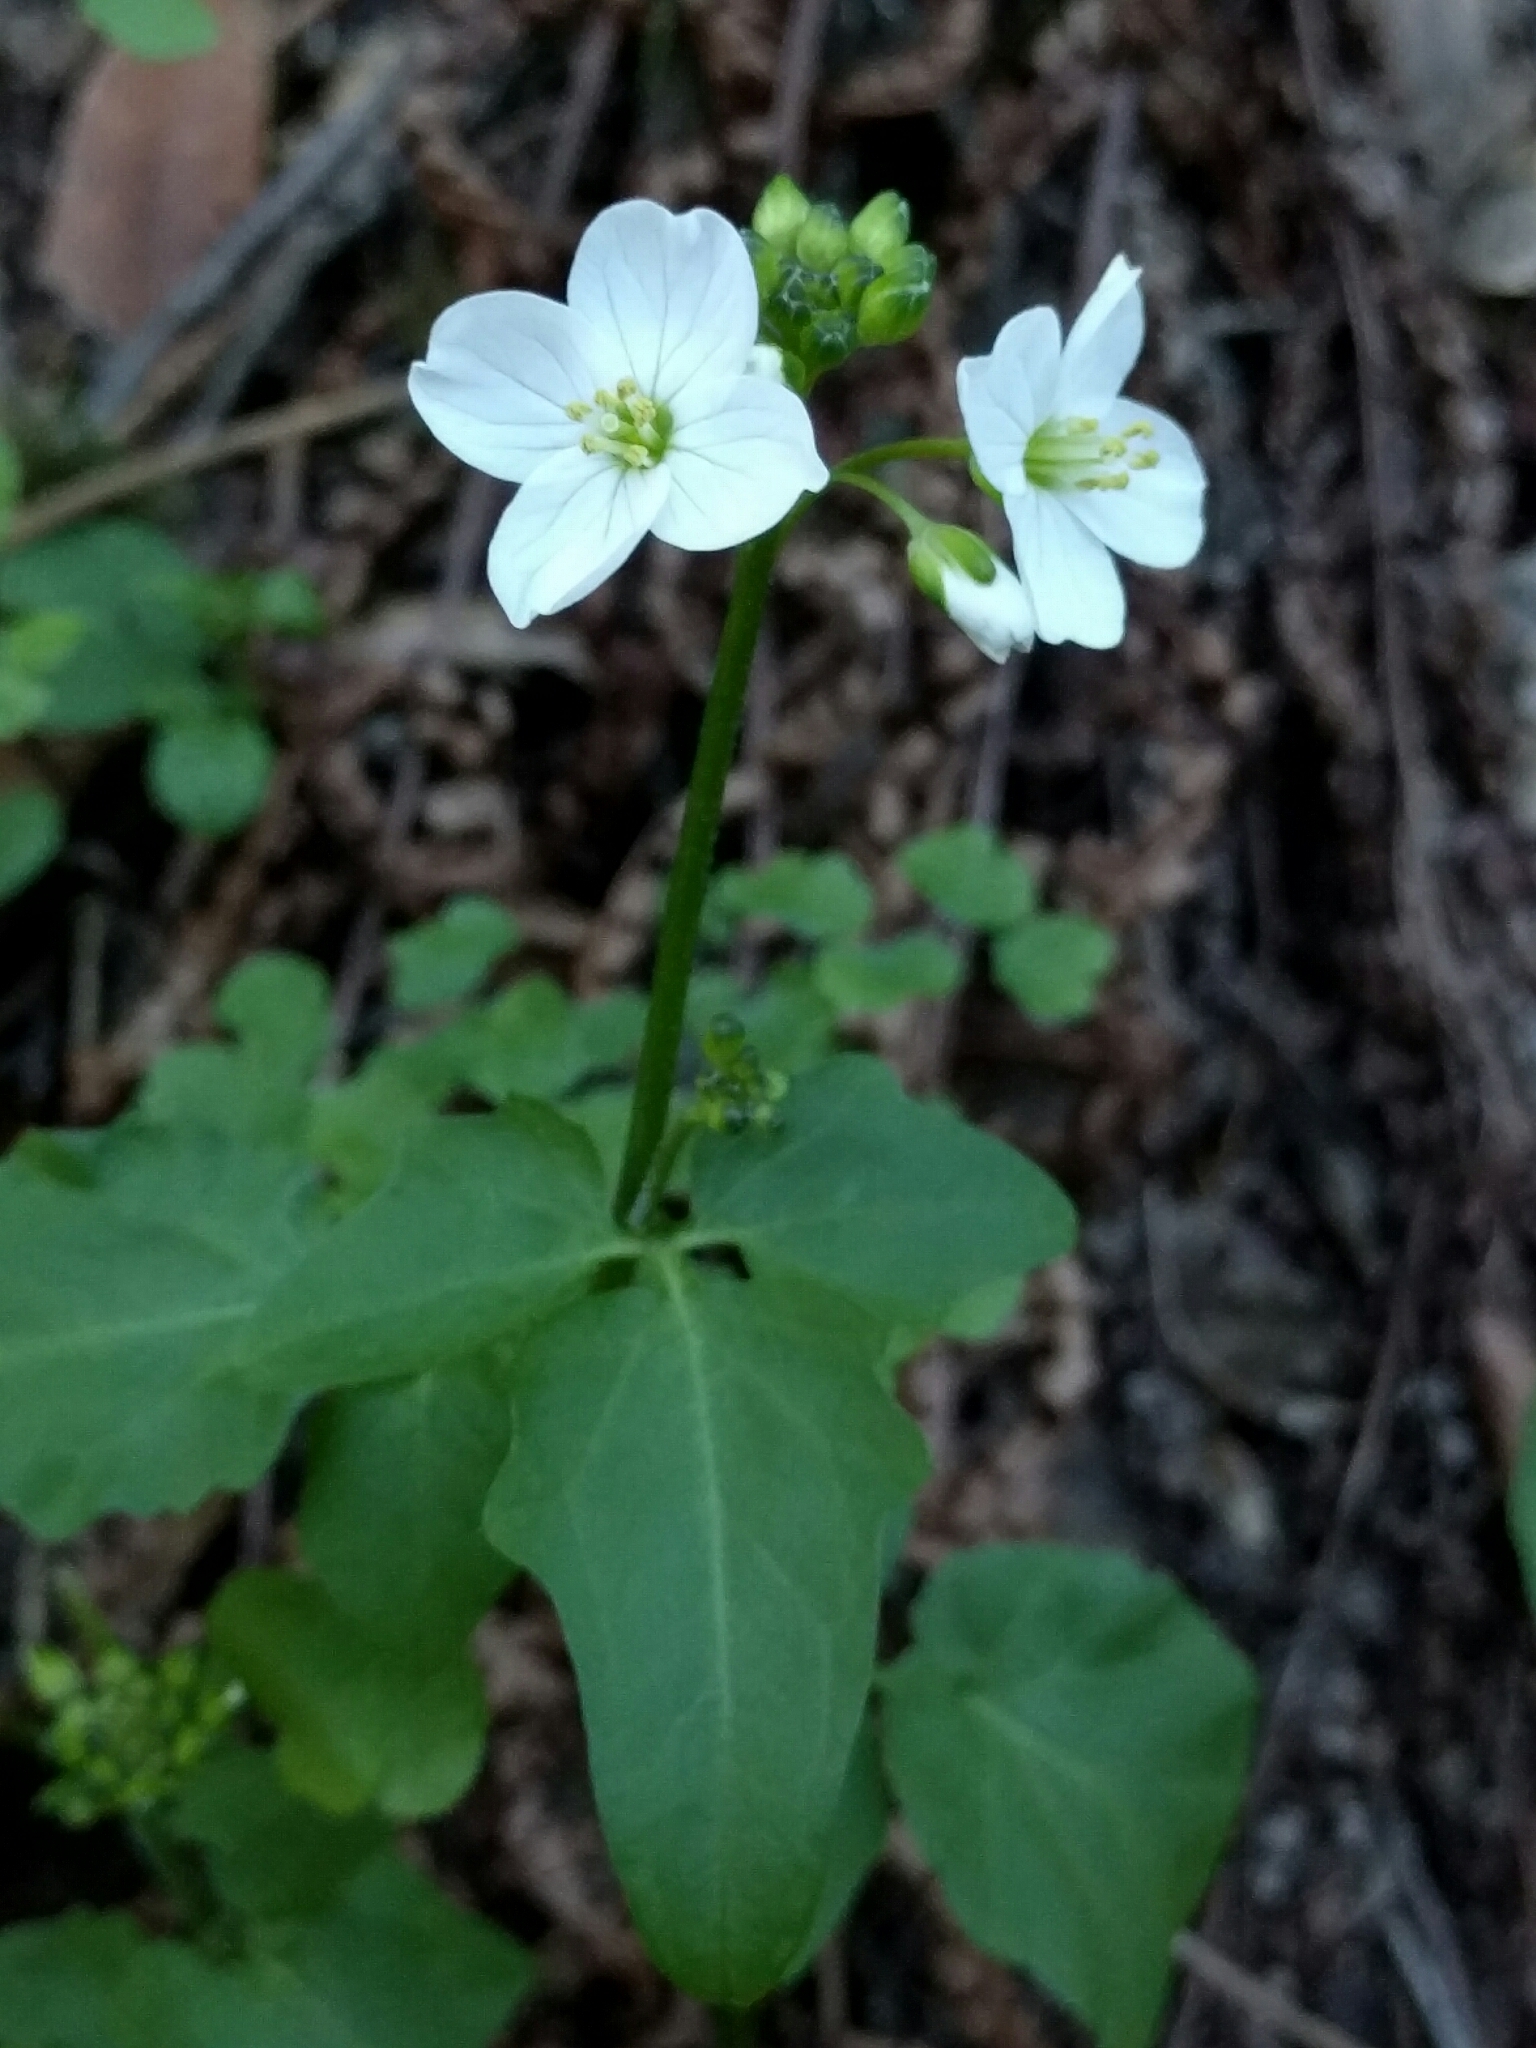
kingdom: Plantae
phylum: Tracheophyta
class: Magnoliopsida
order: Brassicales
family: Brassicaceae
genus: Cardamine
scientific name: Cardamine californica
